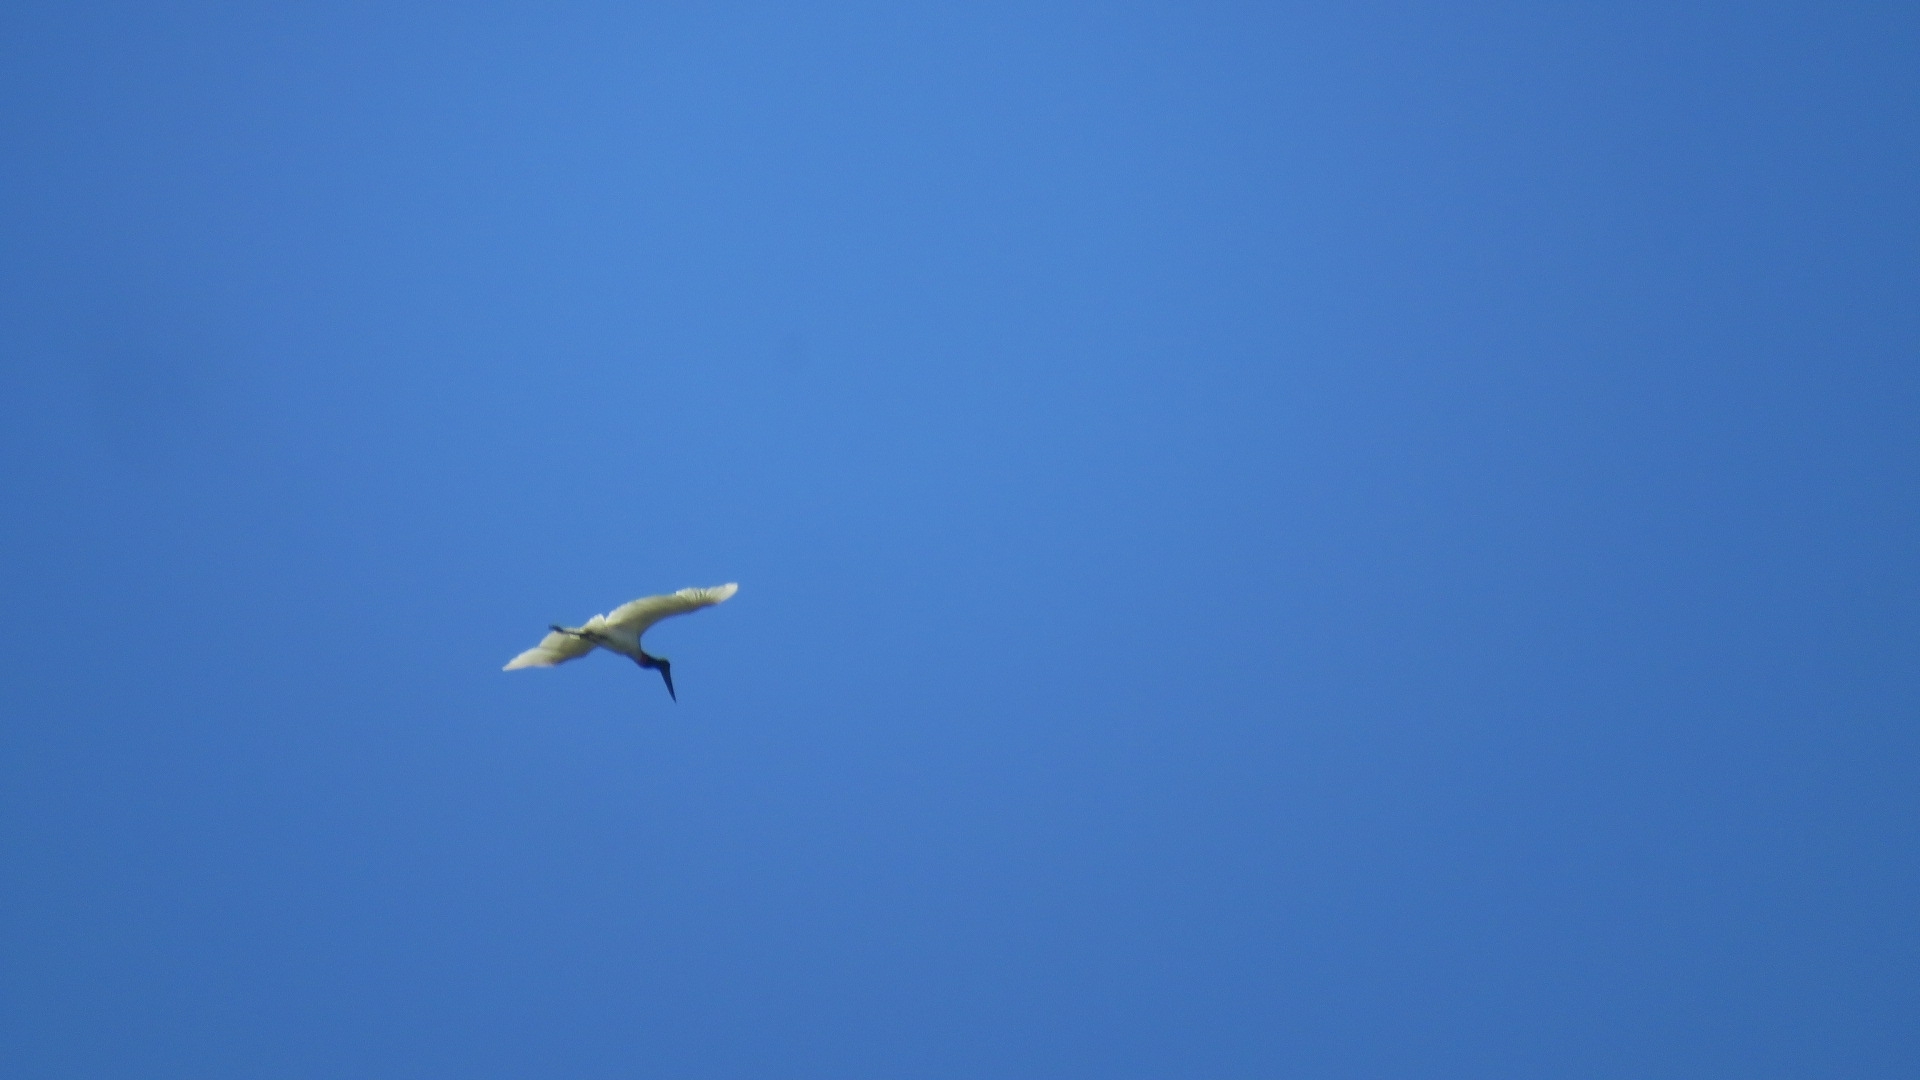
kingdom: Animalia
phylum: Chordata
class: Aves
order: Ciconiiformes
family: Ciconiidae
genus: Jabiru
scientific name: Jabiru mycteria
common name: Jabiru
